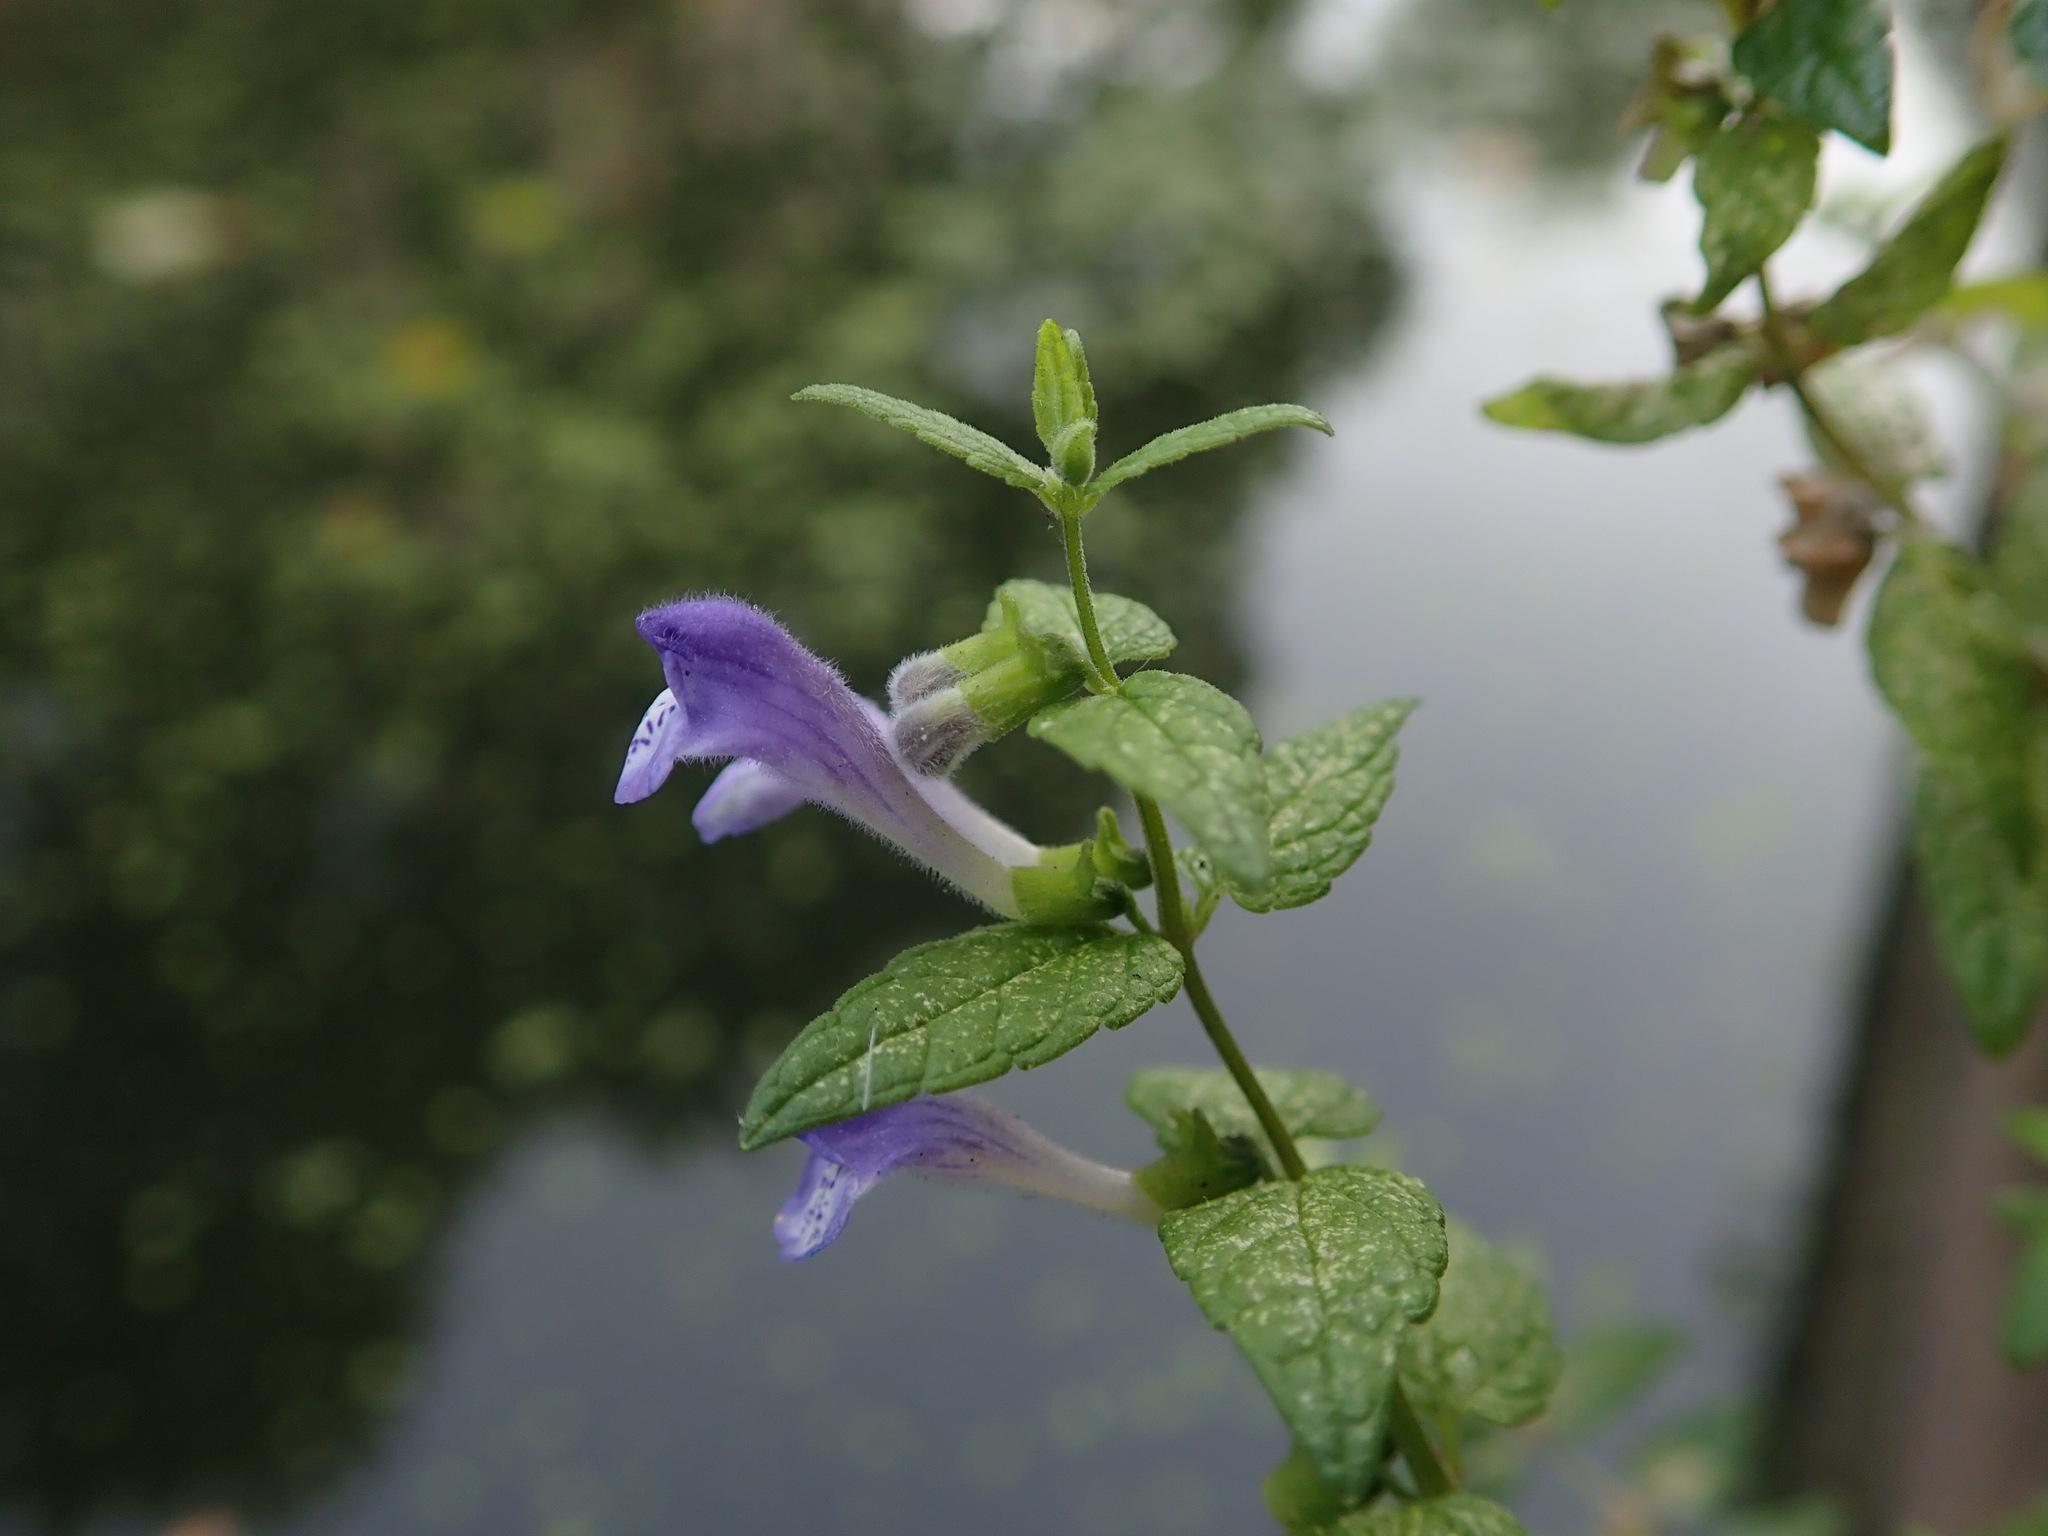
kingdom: Plantae
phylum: Tracheophyta
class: Magnoliopsida
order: Lamiales
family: Lamiaceae
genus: Scutellaria
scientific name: Scutellaria galericulata
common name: Skullcap
